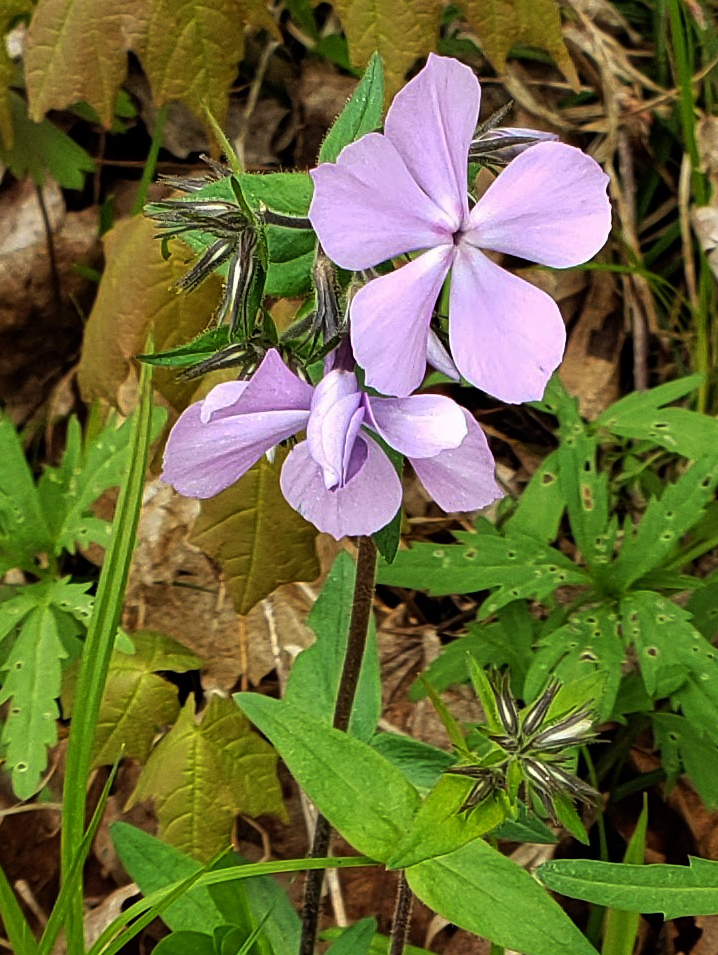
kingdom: Plantae
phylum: Tracheophyta
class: Magnoliopsida
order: Ericales
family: Polemoniaceae
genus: Phlox
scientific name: Phlox divaricata
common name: Blue phlox
